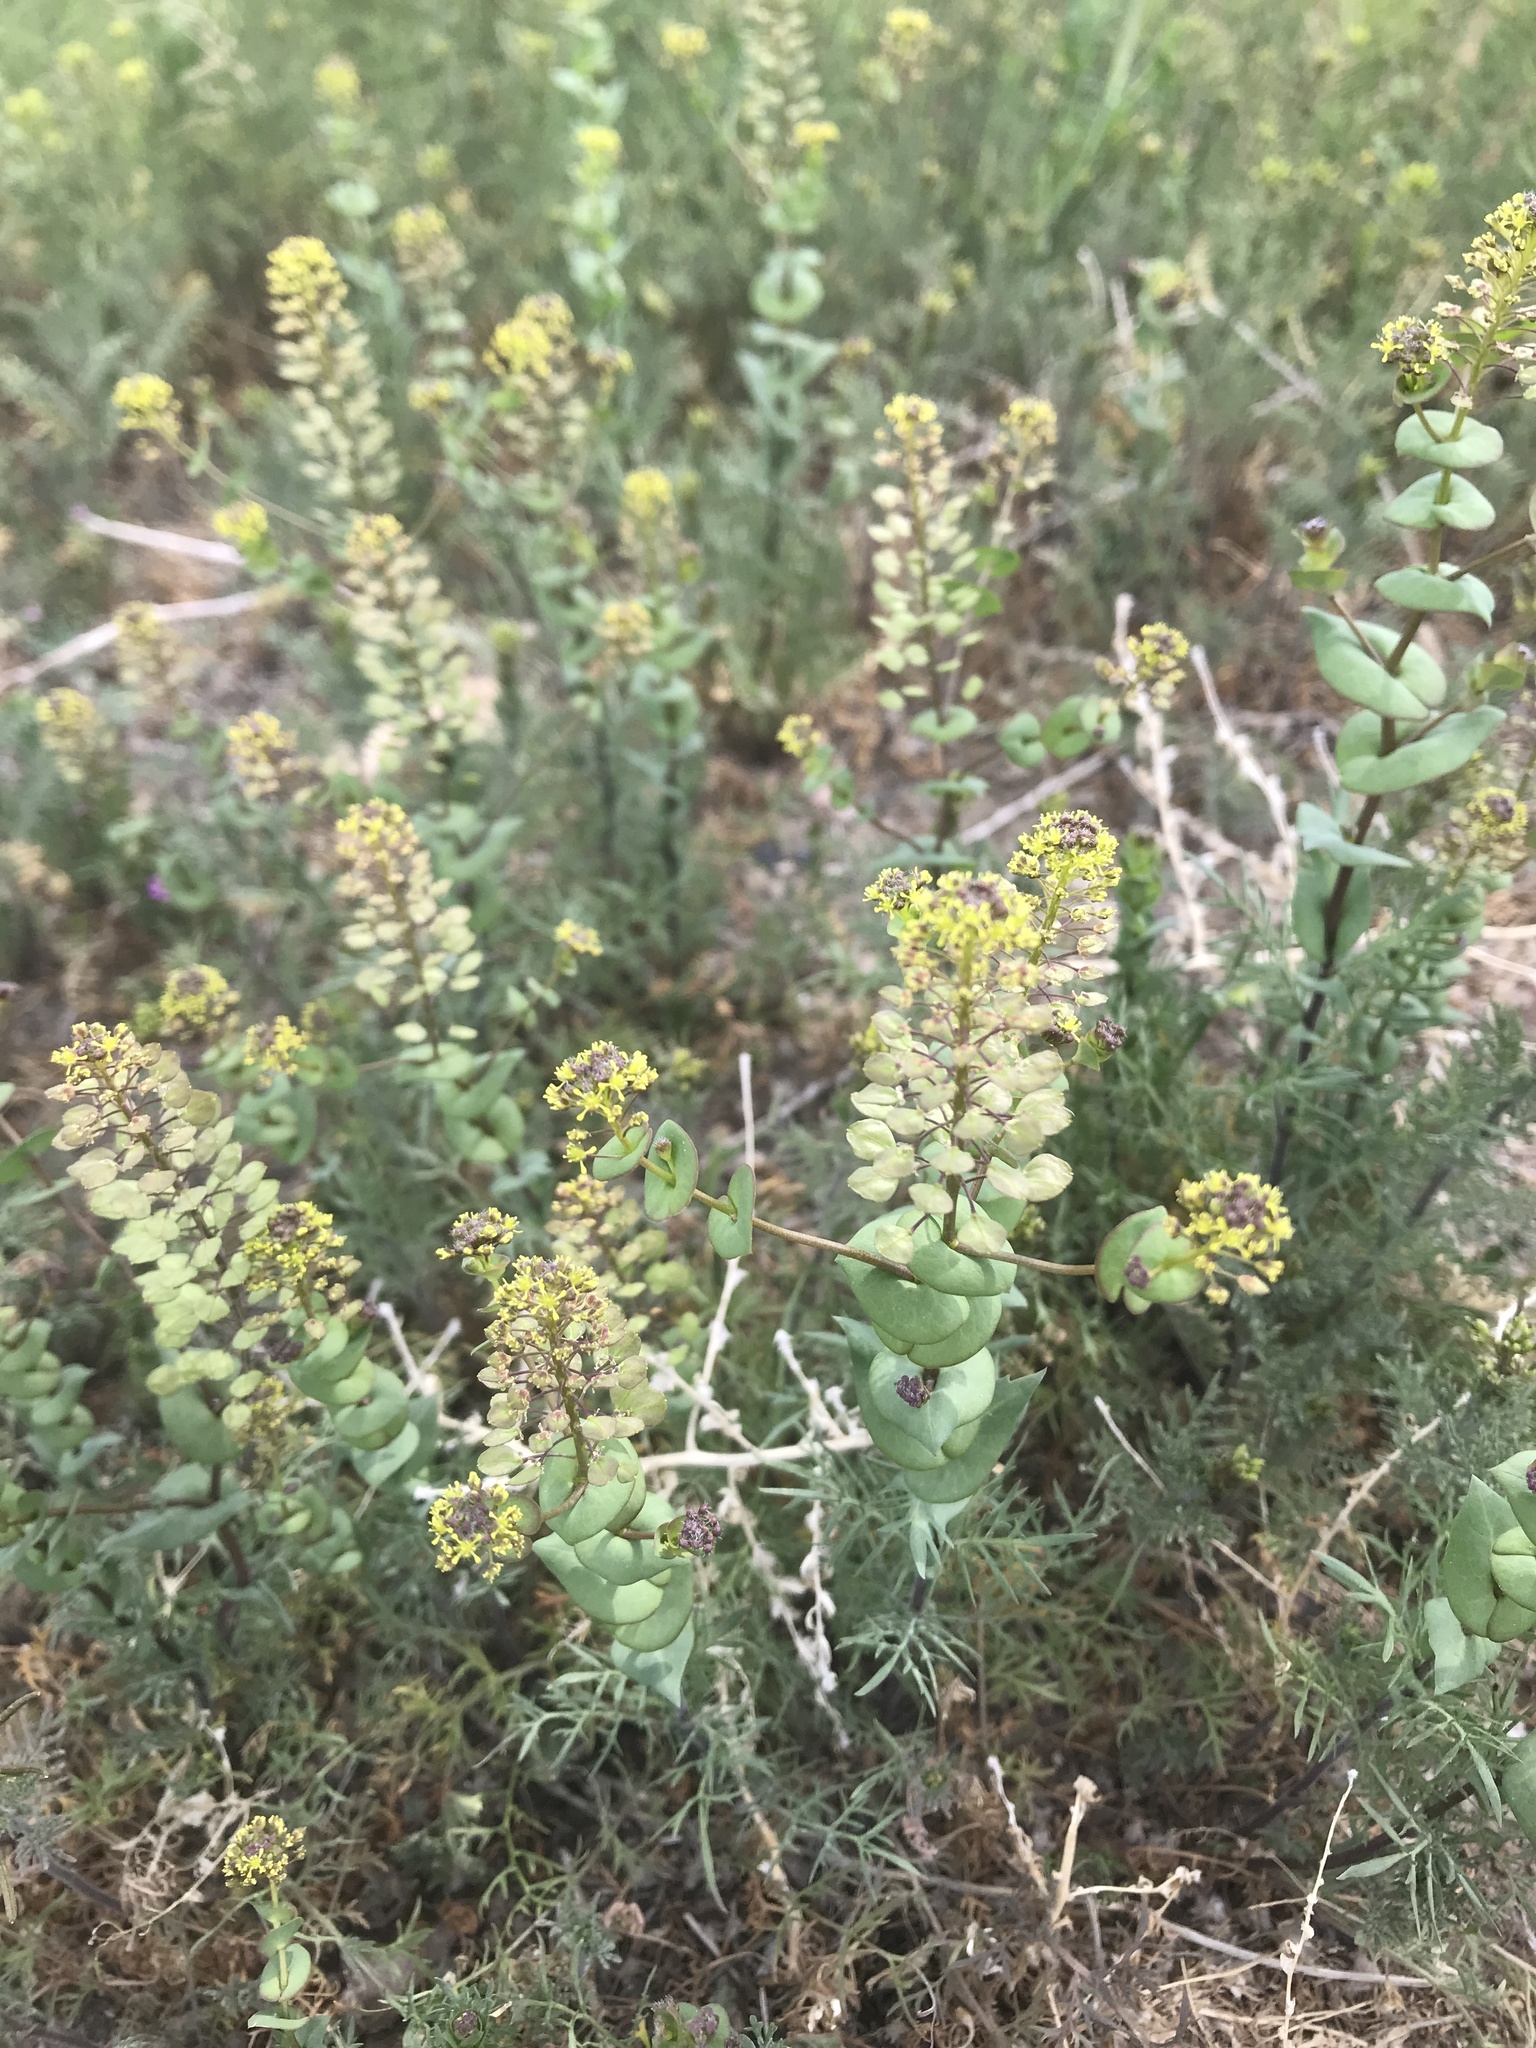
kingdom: Plantae
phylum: Tracheophyta
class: Magnoliopsida
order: Brassicales
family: Brassicaceae
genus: Lepidium
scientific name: Lepidium perfoliatum
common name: Perfoliate pepperwort
